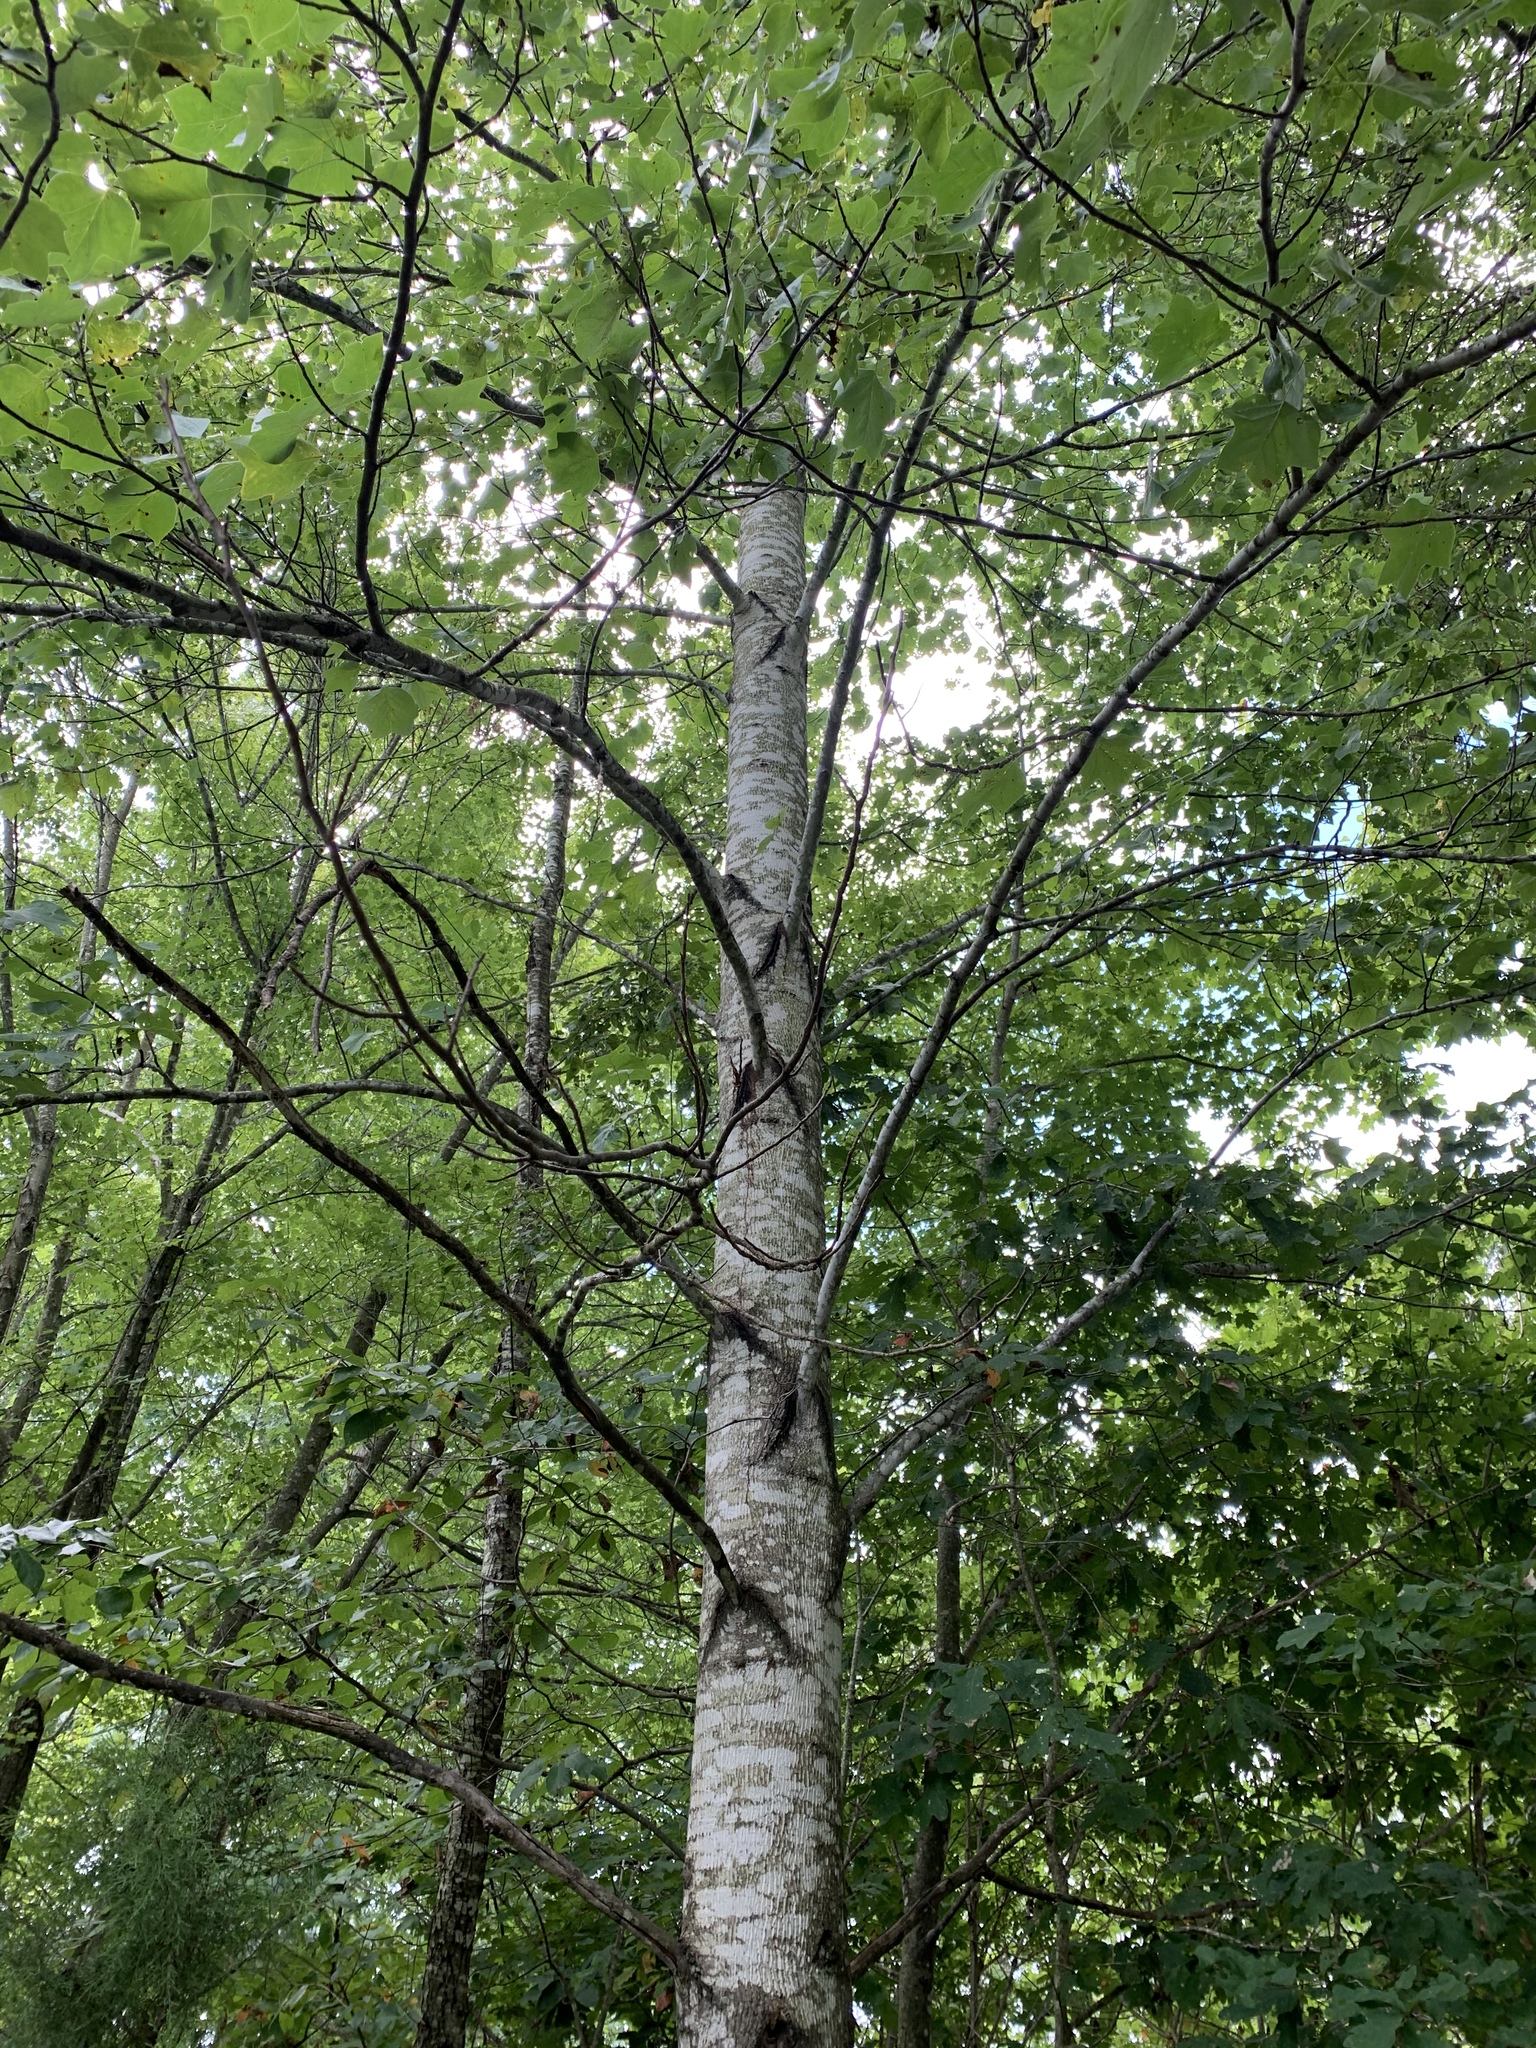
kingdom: Plantae
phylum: Tracheophyta
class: Magnoliopsida
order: Magnoliales
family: Magnoliaceae
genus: Liriodendron
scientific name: Liriodendron tulipifera
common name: Tulip tree
